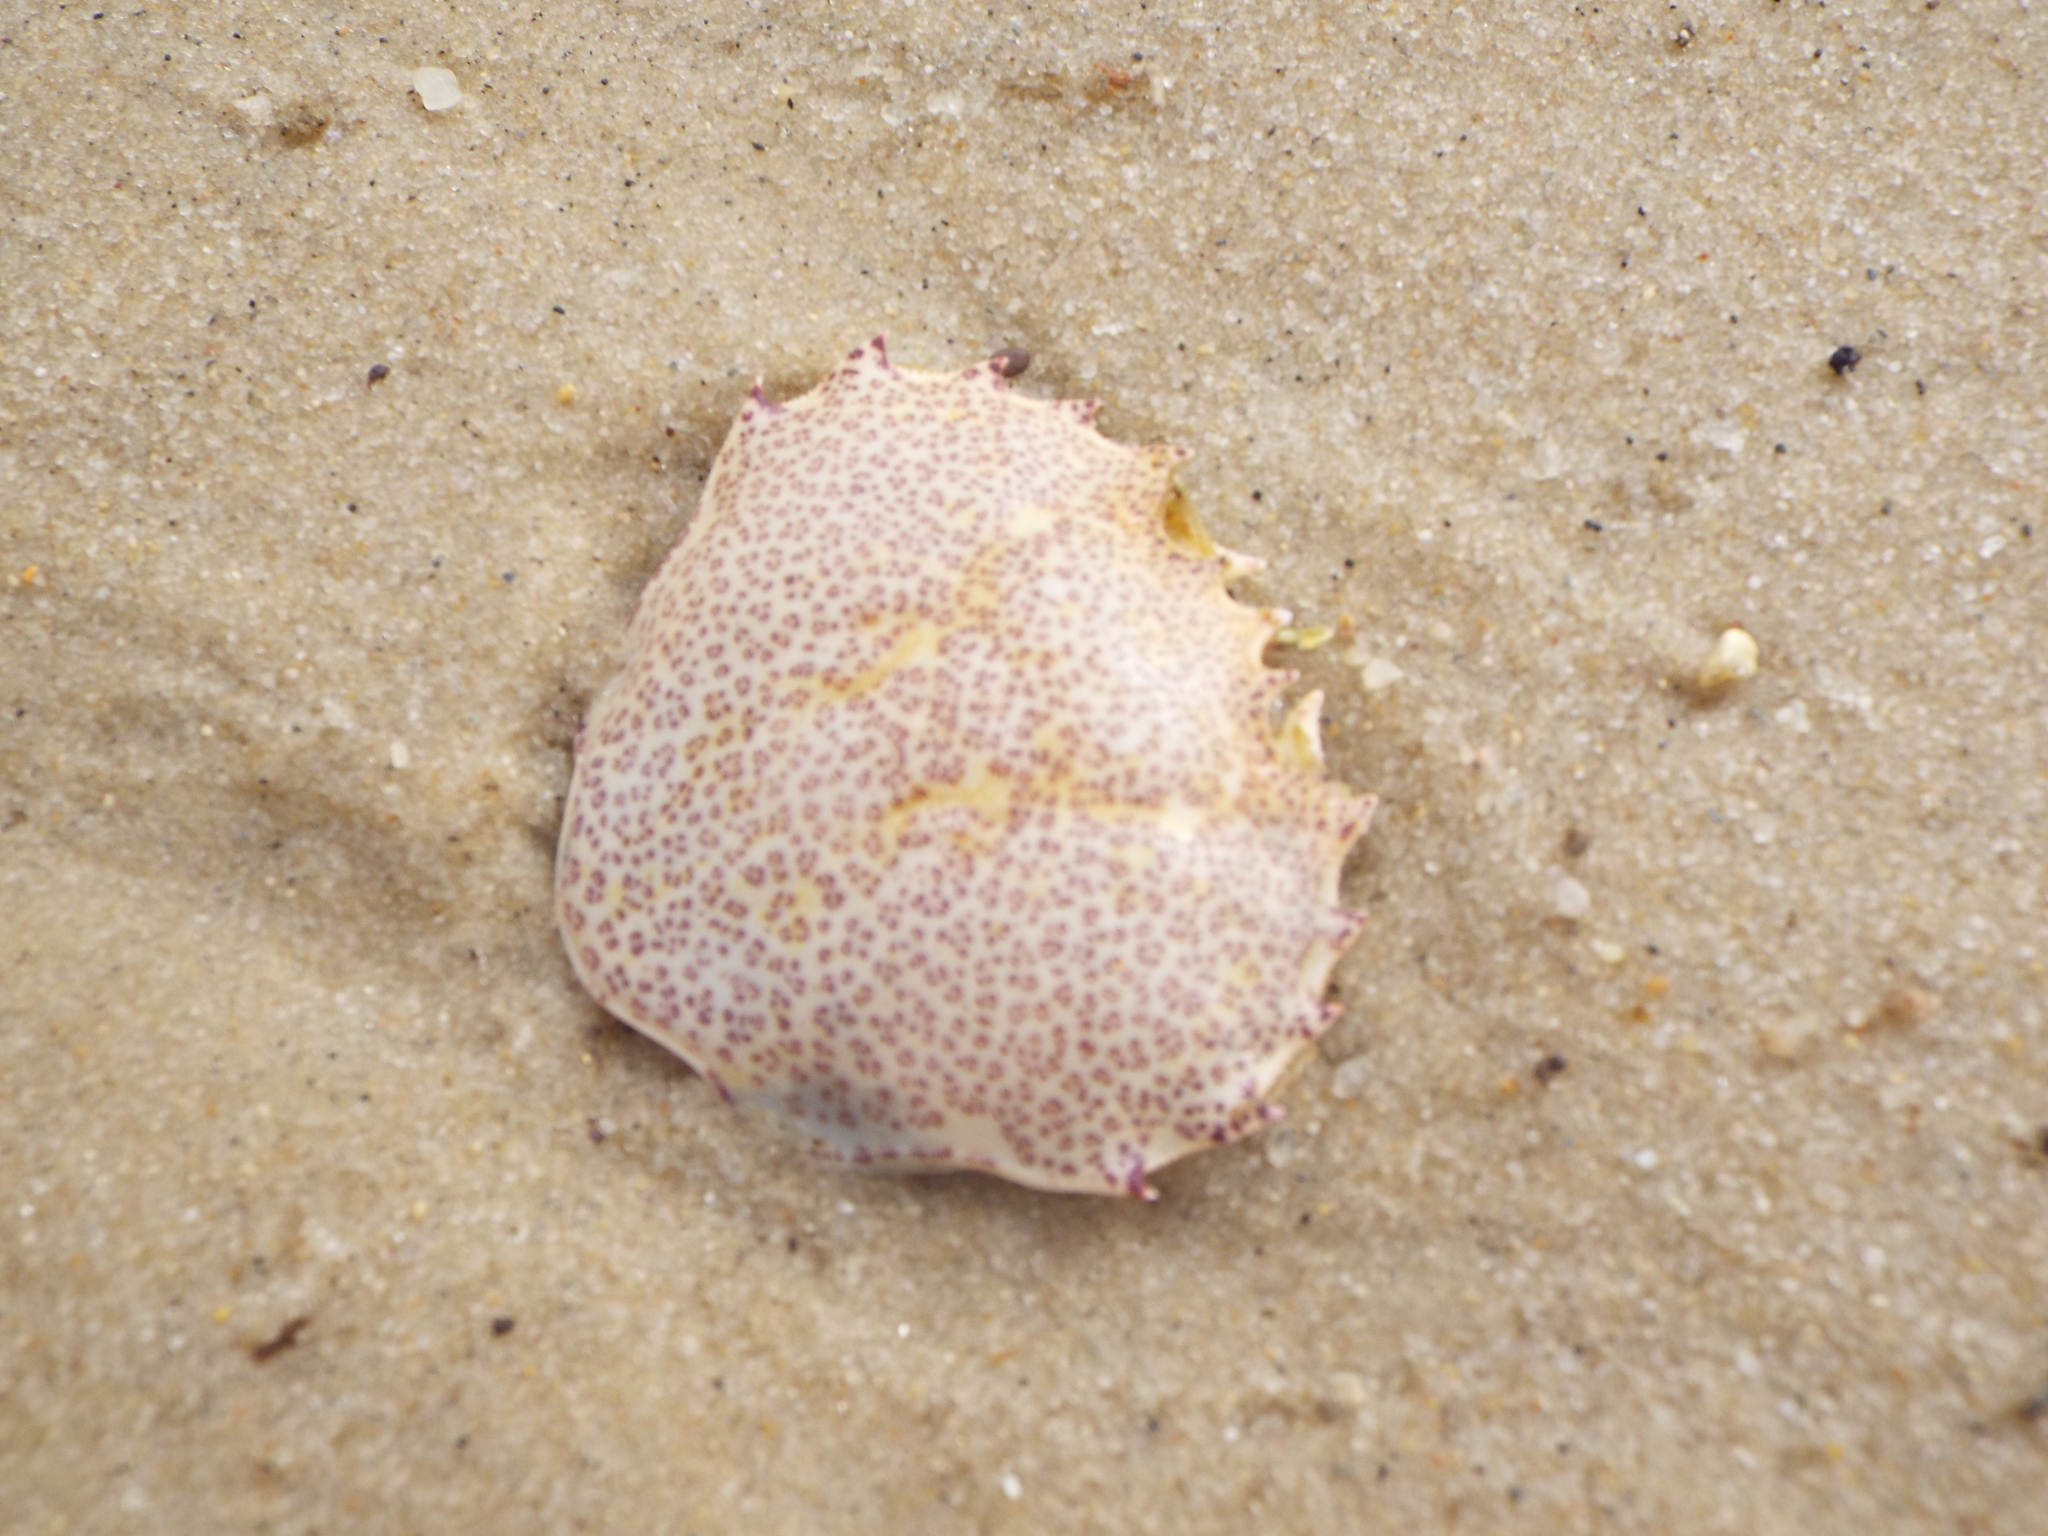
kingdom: Animalia
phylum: Arthropoda
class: Malacostraca
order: Decapoda
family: Ovalipidae
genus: Ovalipes
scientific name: Ovalipes ocellatus
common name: Lady crab
